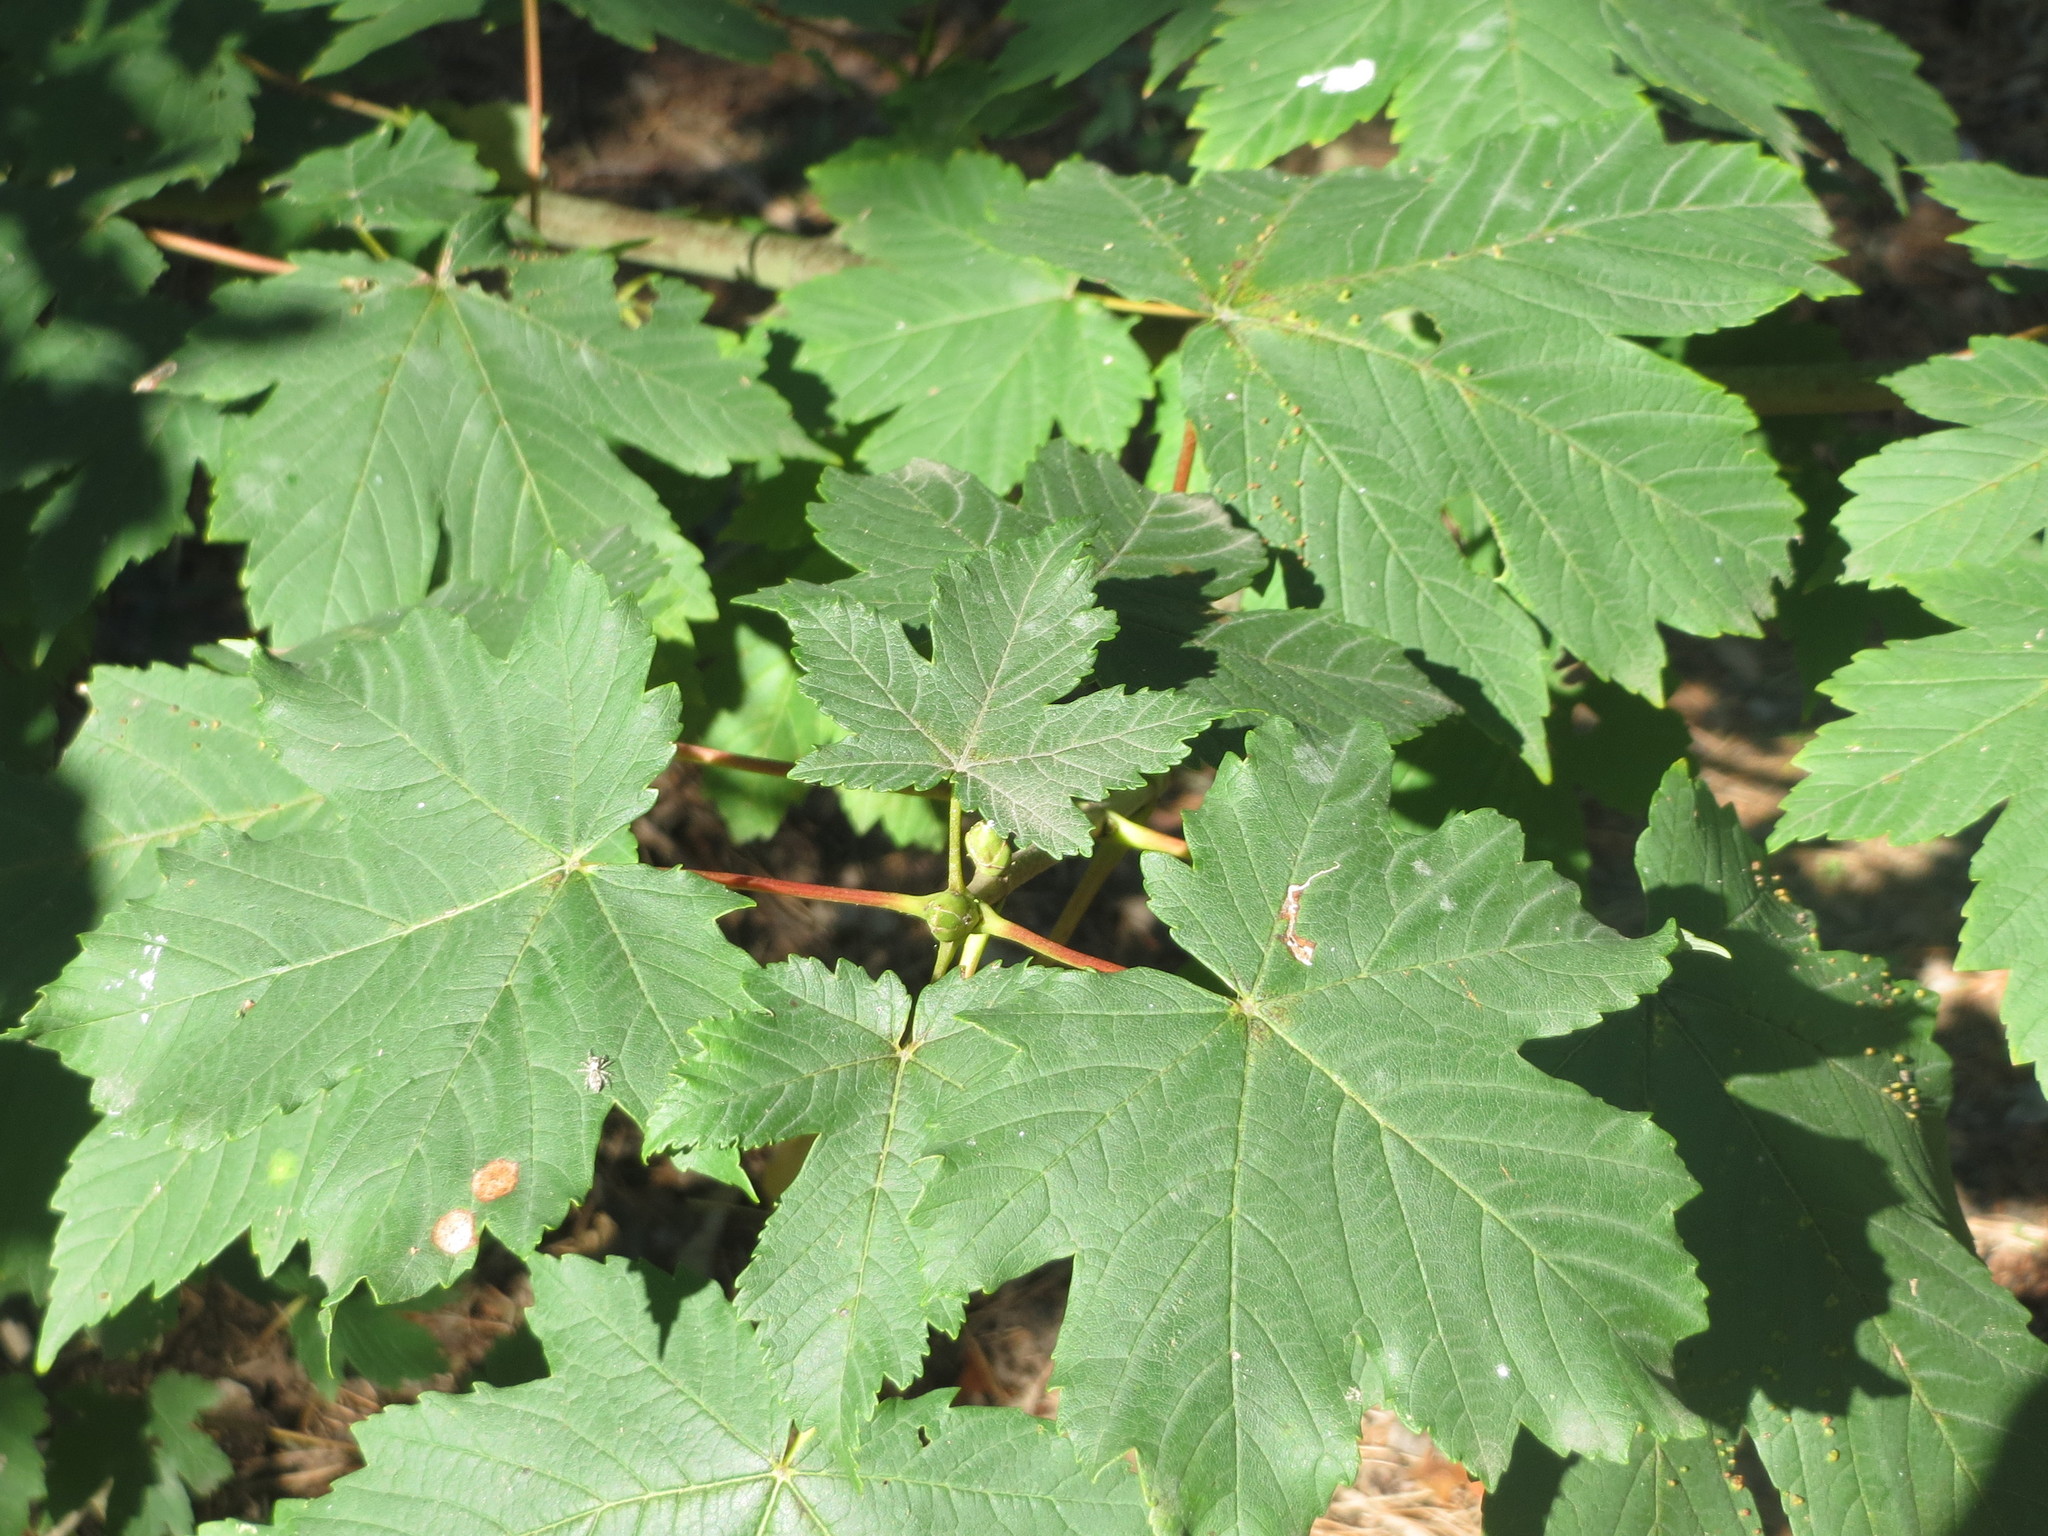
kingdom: Plantae
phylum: Tracheophyta
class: Magnoliopsida
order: Sapindales
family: Sapindaceae
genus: Acer
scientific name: Acer pseudoplatanus
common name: Sycamore
